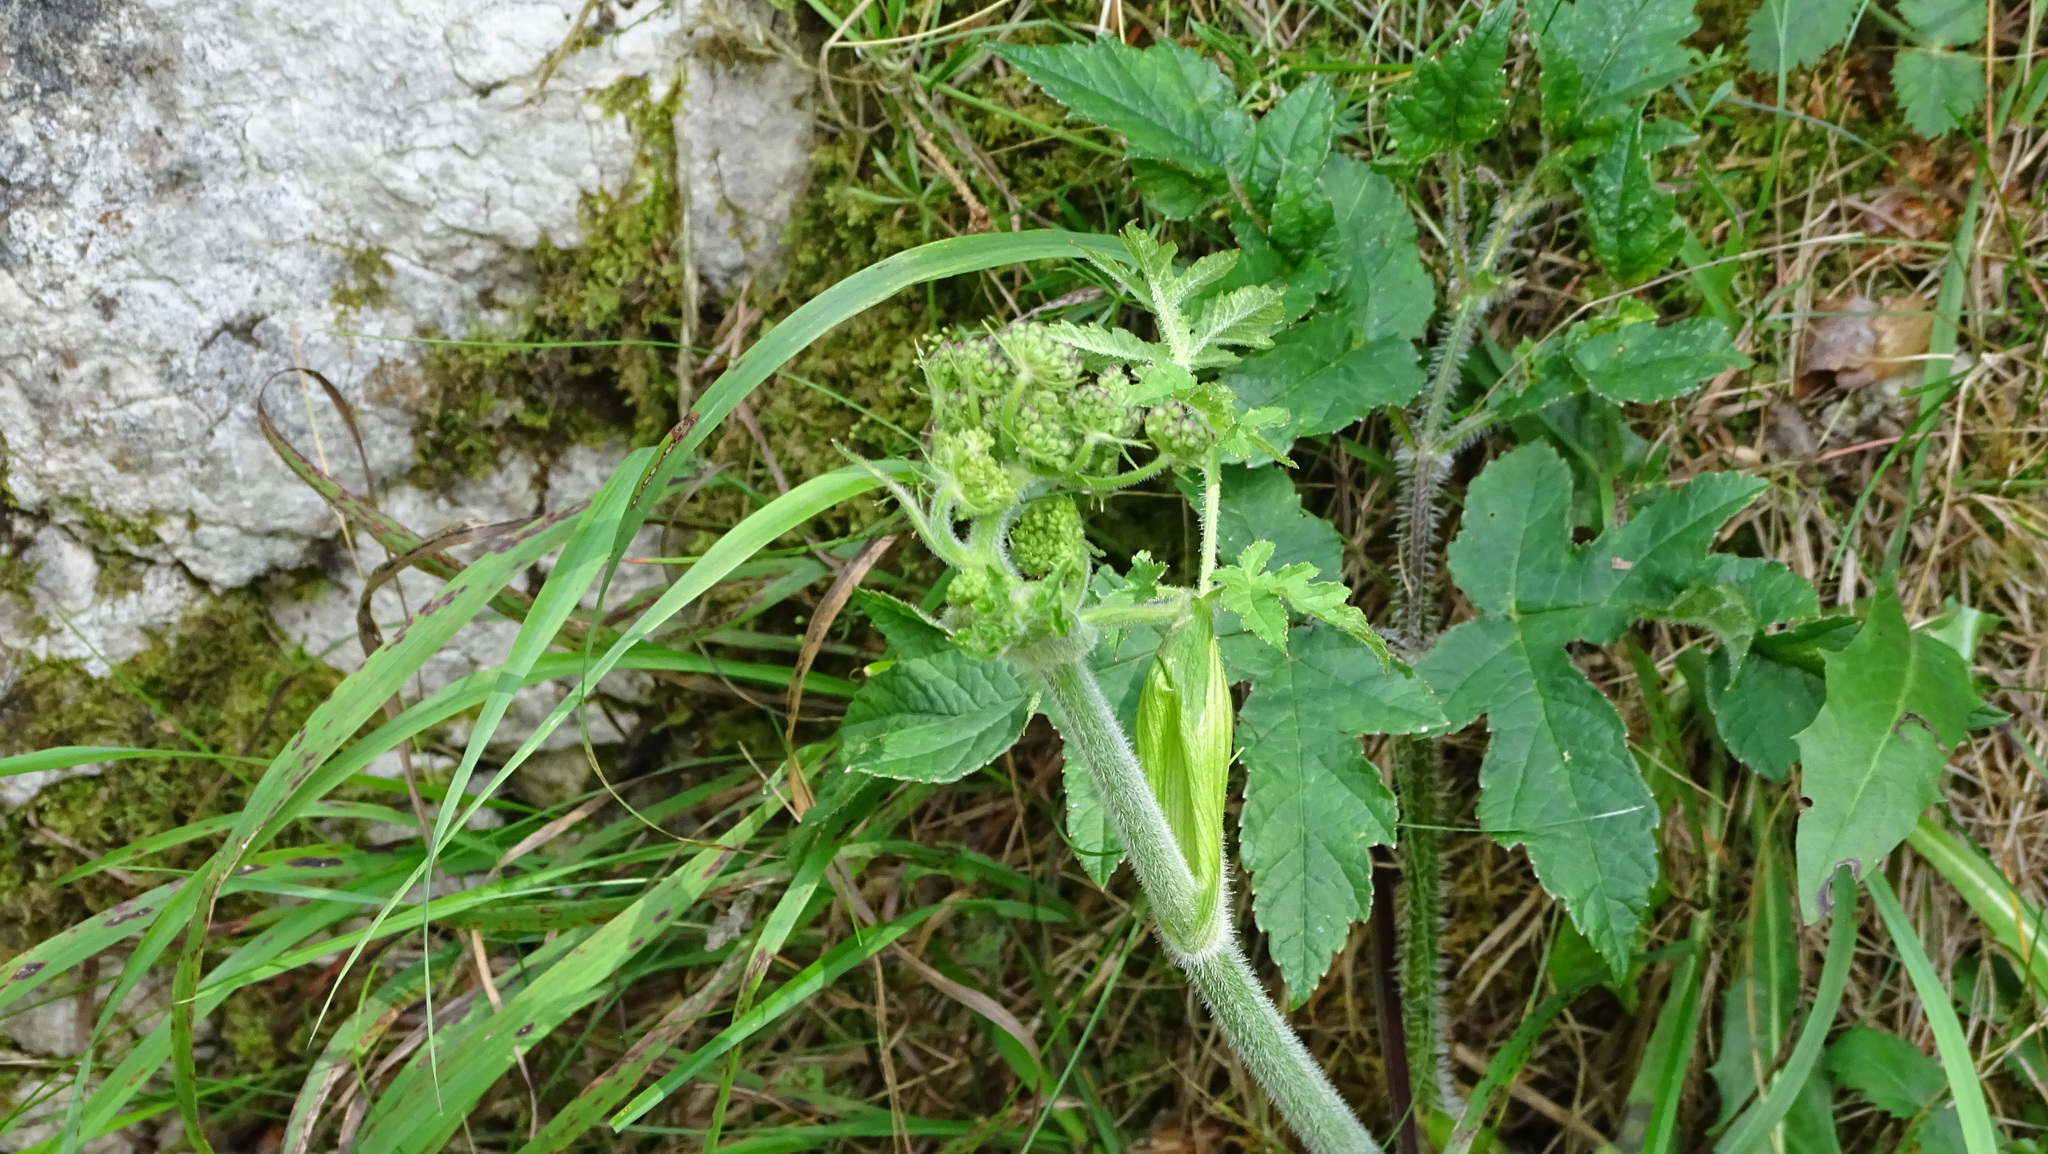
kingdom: Plantae
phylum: Tracheophyta
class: Magnoliopsida
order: Apiales
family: Apiaceae
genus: Heracleum
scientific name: Heracleum sphondylium
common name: Hogweed
